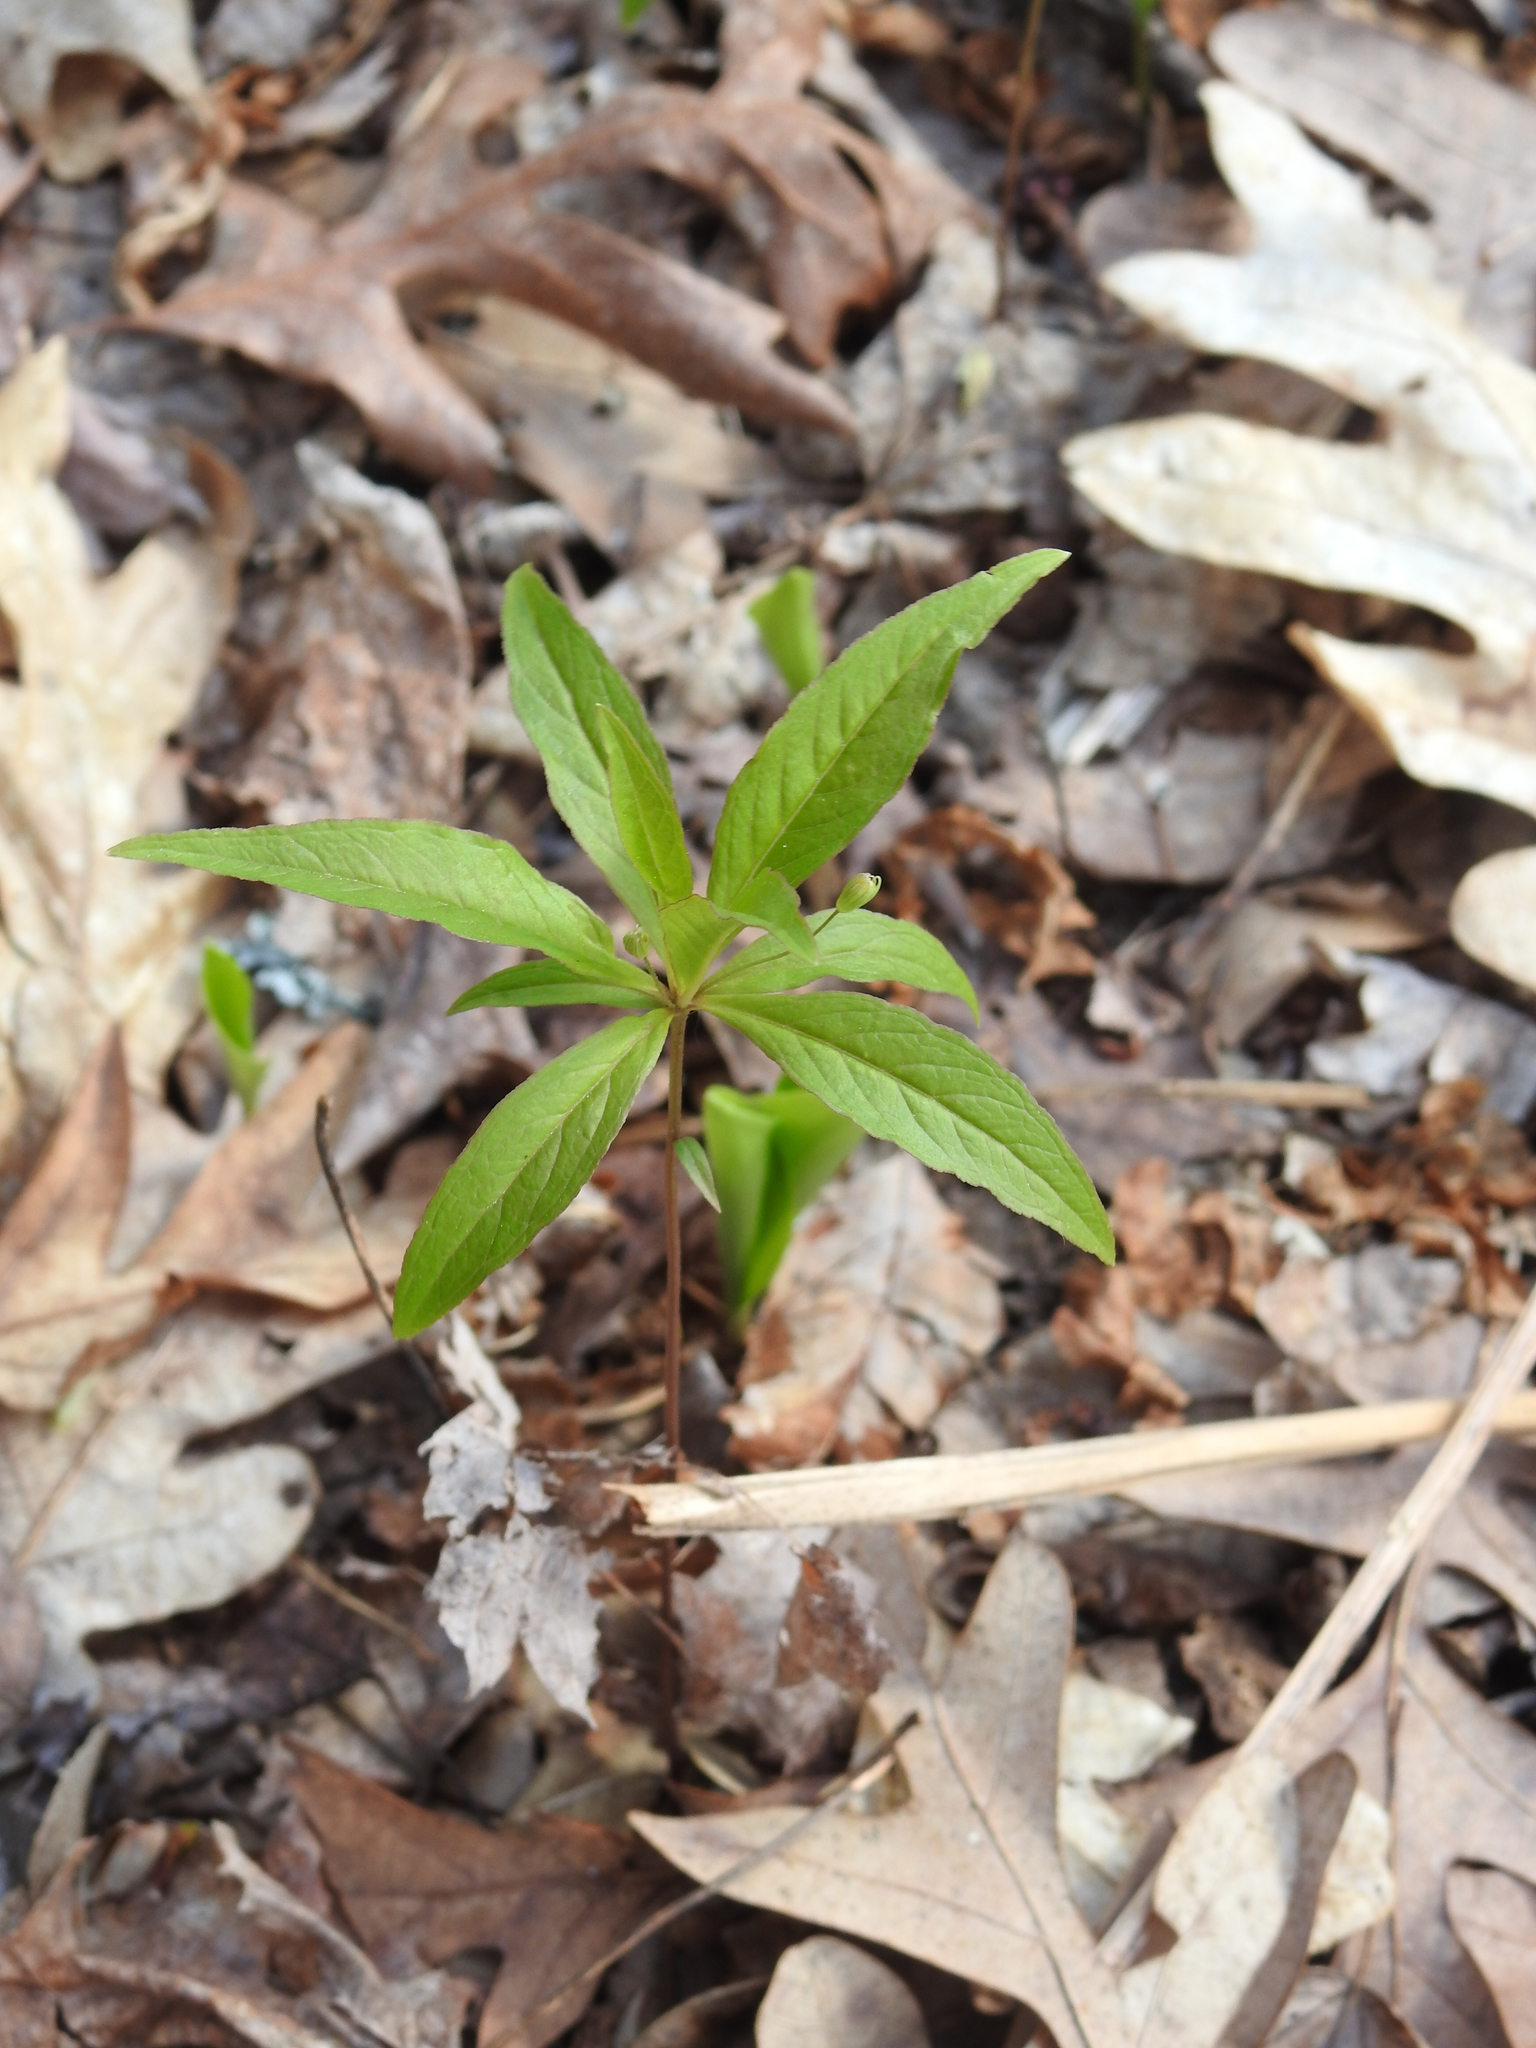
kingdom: Plantae
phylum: Tracheophyta
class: Magnoliopsida
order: Ericales
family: Primulaceae
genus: Lysimachia
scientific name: Lysimachia borealis
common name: American starflower
